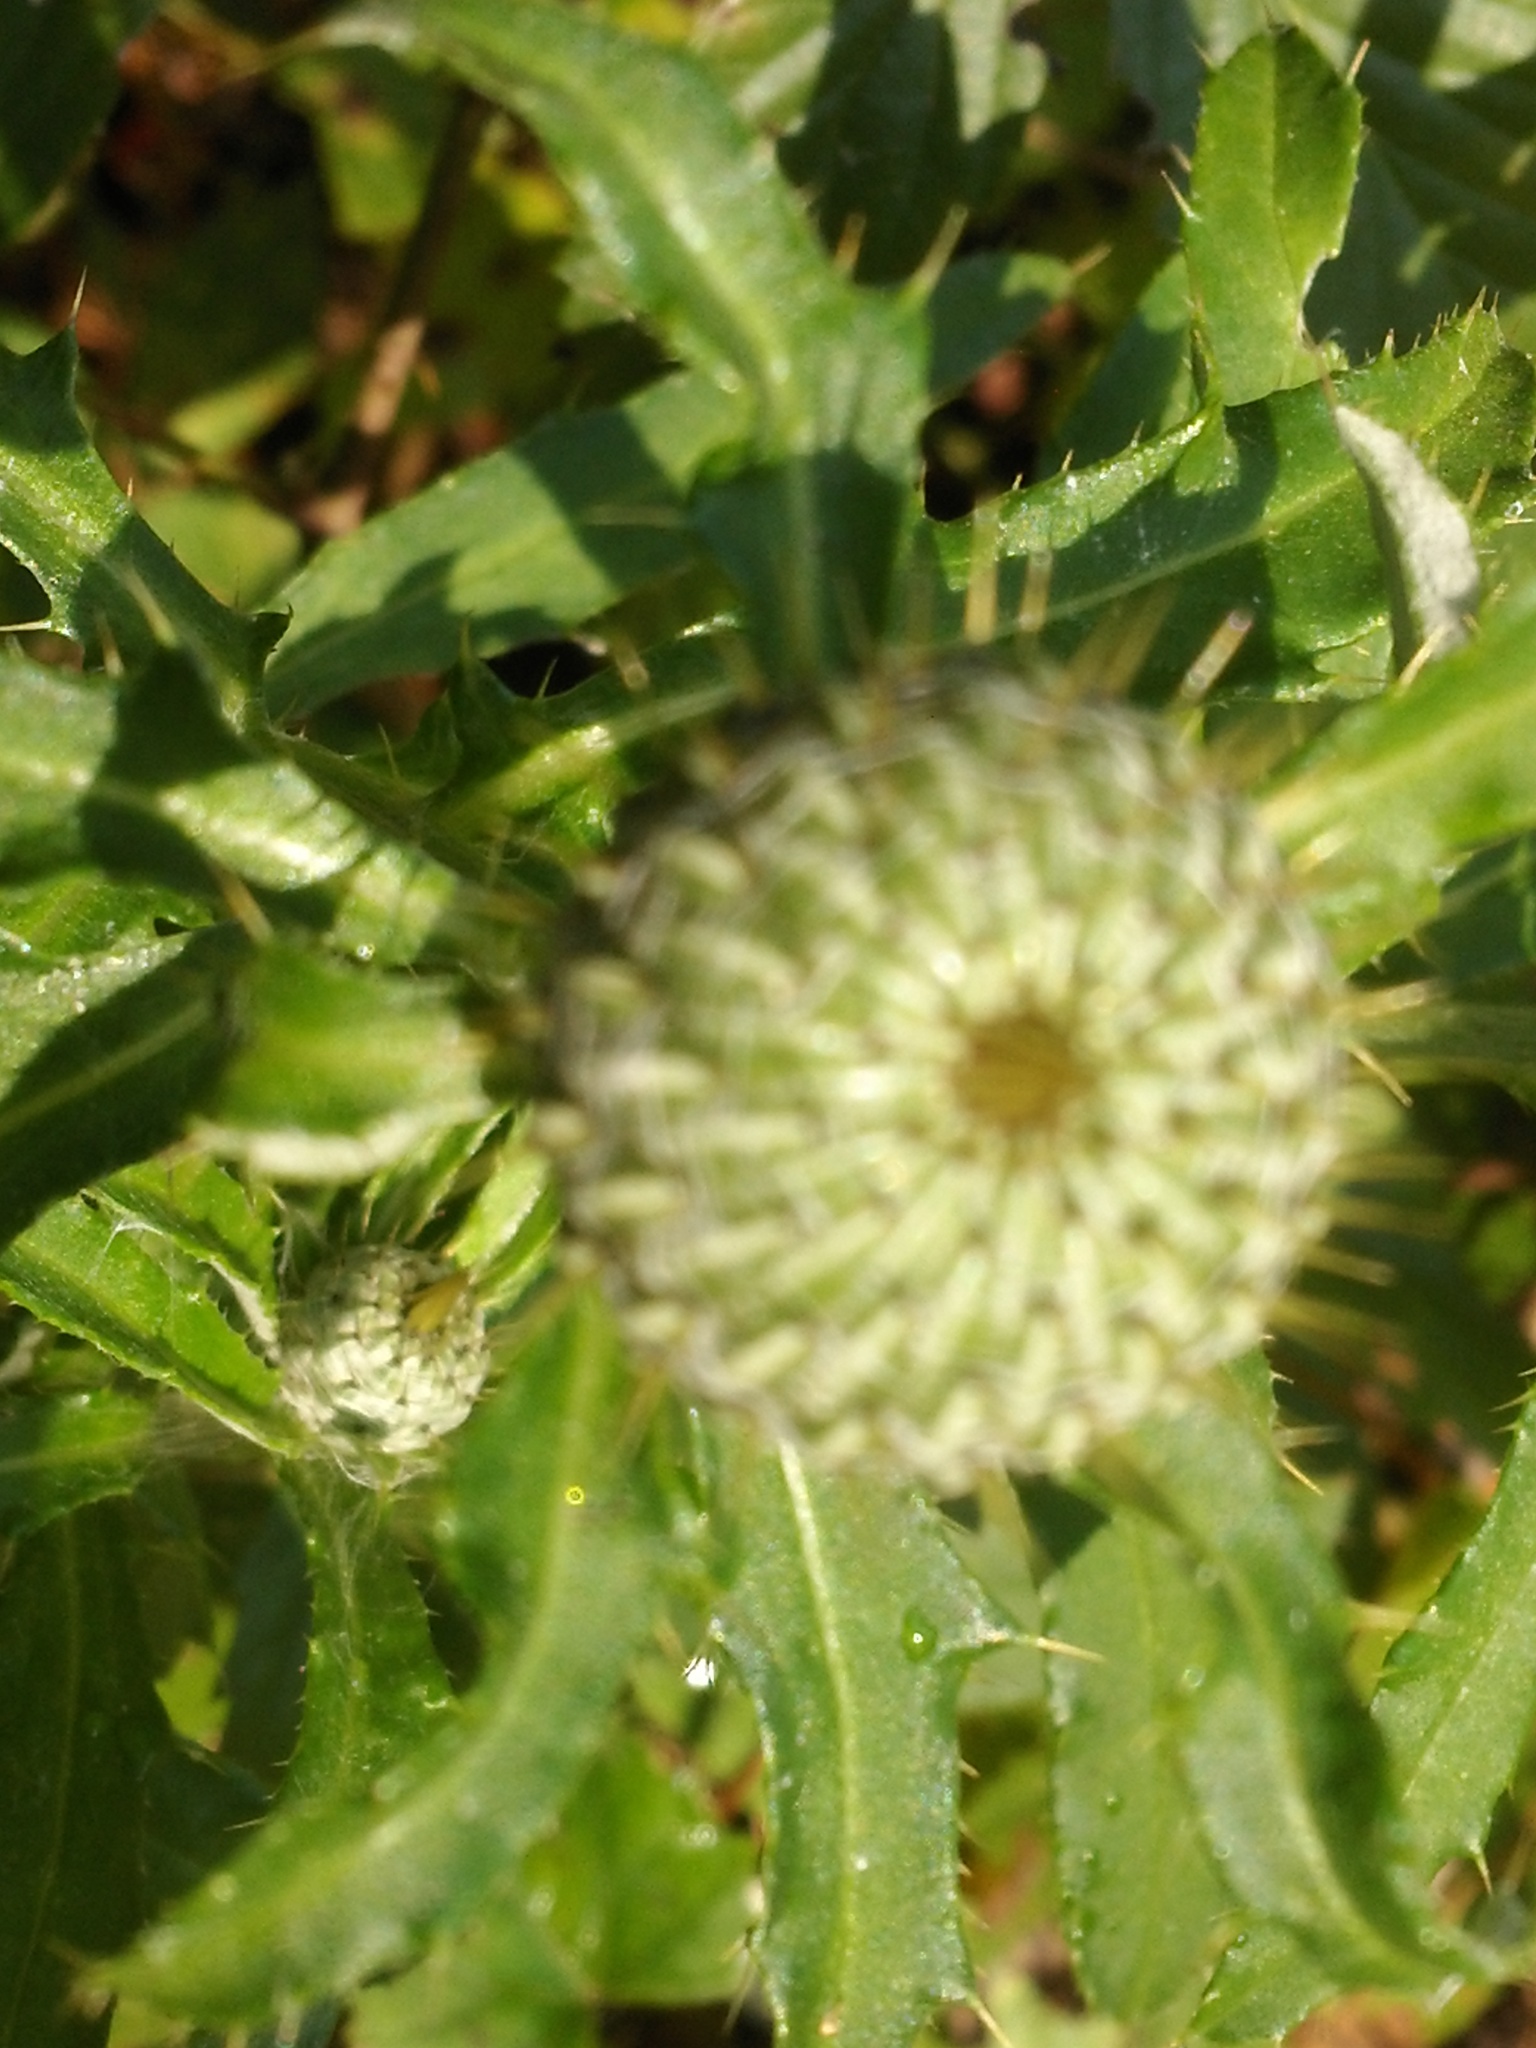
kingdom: Plantae
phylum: Tracheophyta
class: Magnoliopsida
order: Asterales
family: Asteraceae
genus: Cirsium
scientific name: Cirsium altissimum
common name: Roadside thistle
